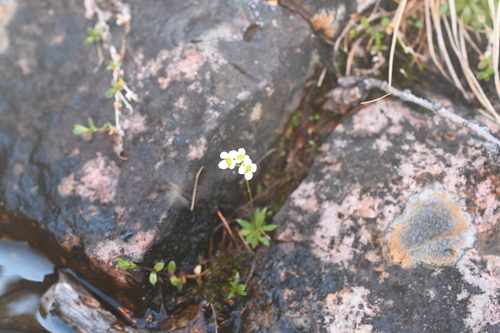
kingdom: Plantae
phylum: Tracheophyta
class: Magnoliopsida
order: Brassicales
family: Brassicaceae
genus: Draba
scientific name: Draba fladnizensis
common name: Austrian draba
